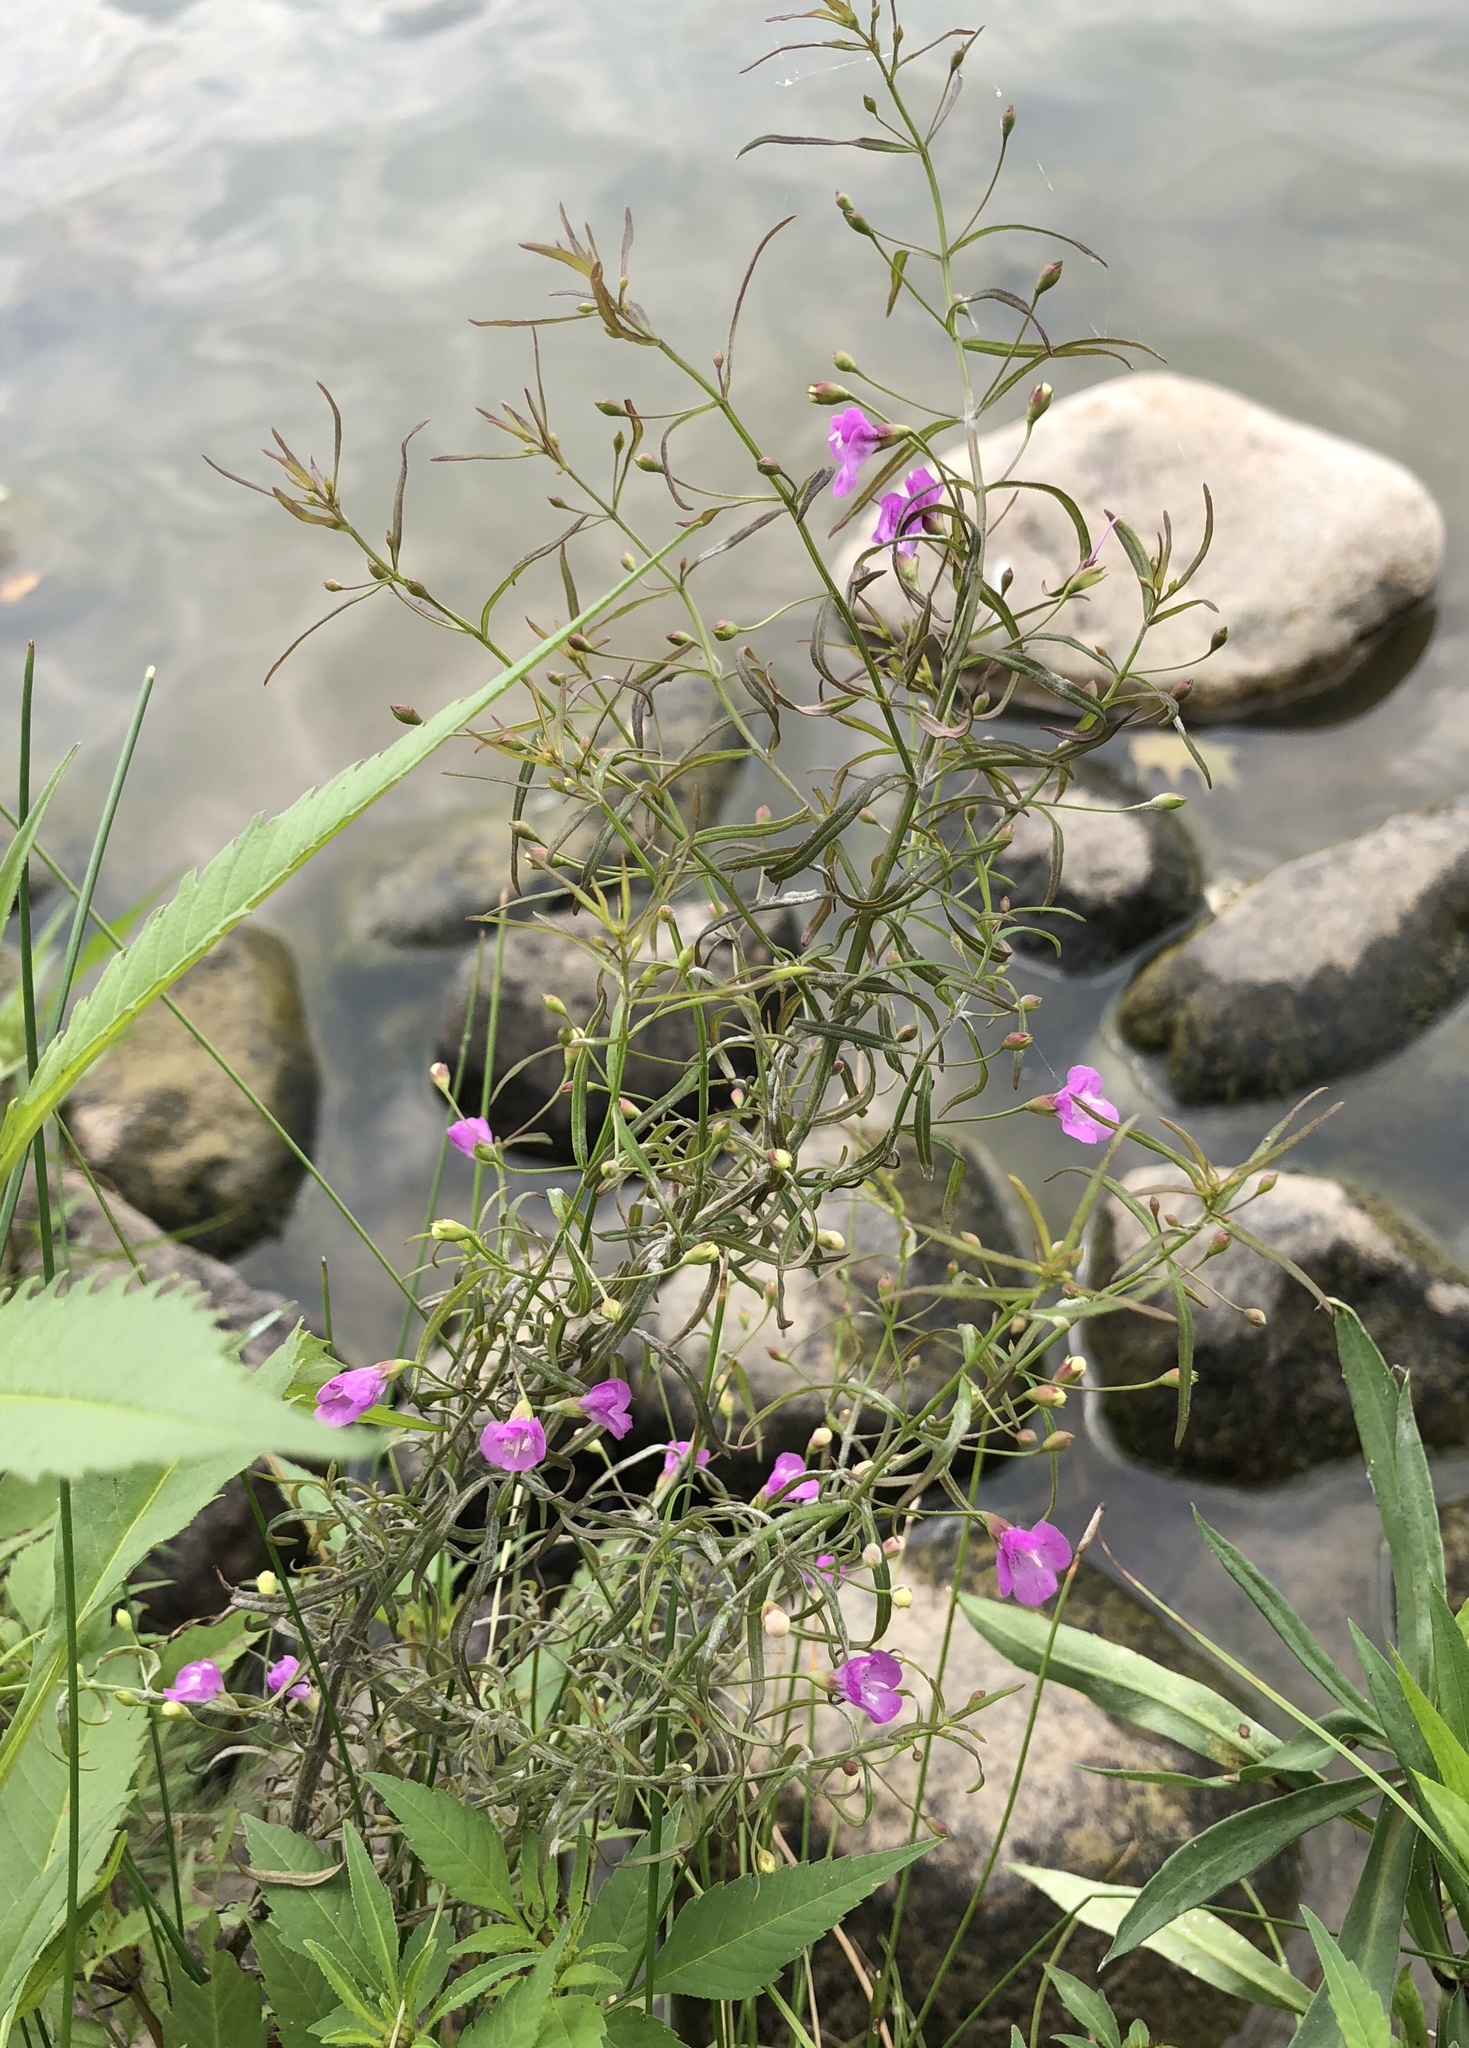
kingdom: Plantae
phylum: Tracheophyta
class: Magnoliopsida
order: Lamiales
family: Orobanchaceae
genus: Agalinis
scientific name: Agalinis tenuifolia
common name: Slender agalinis
